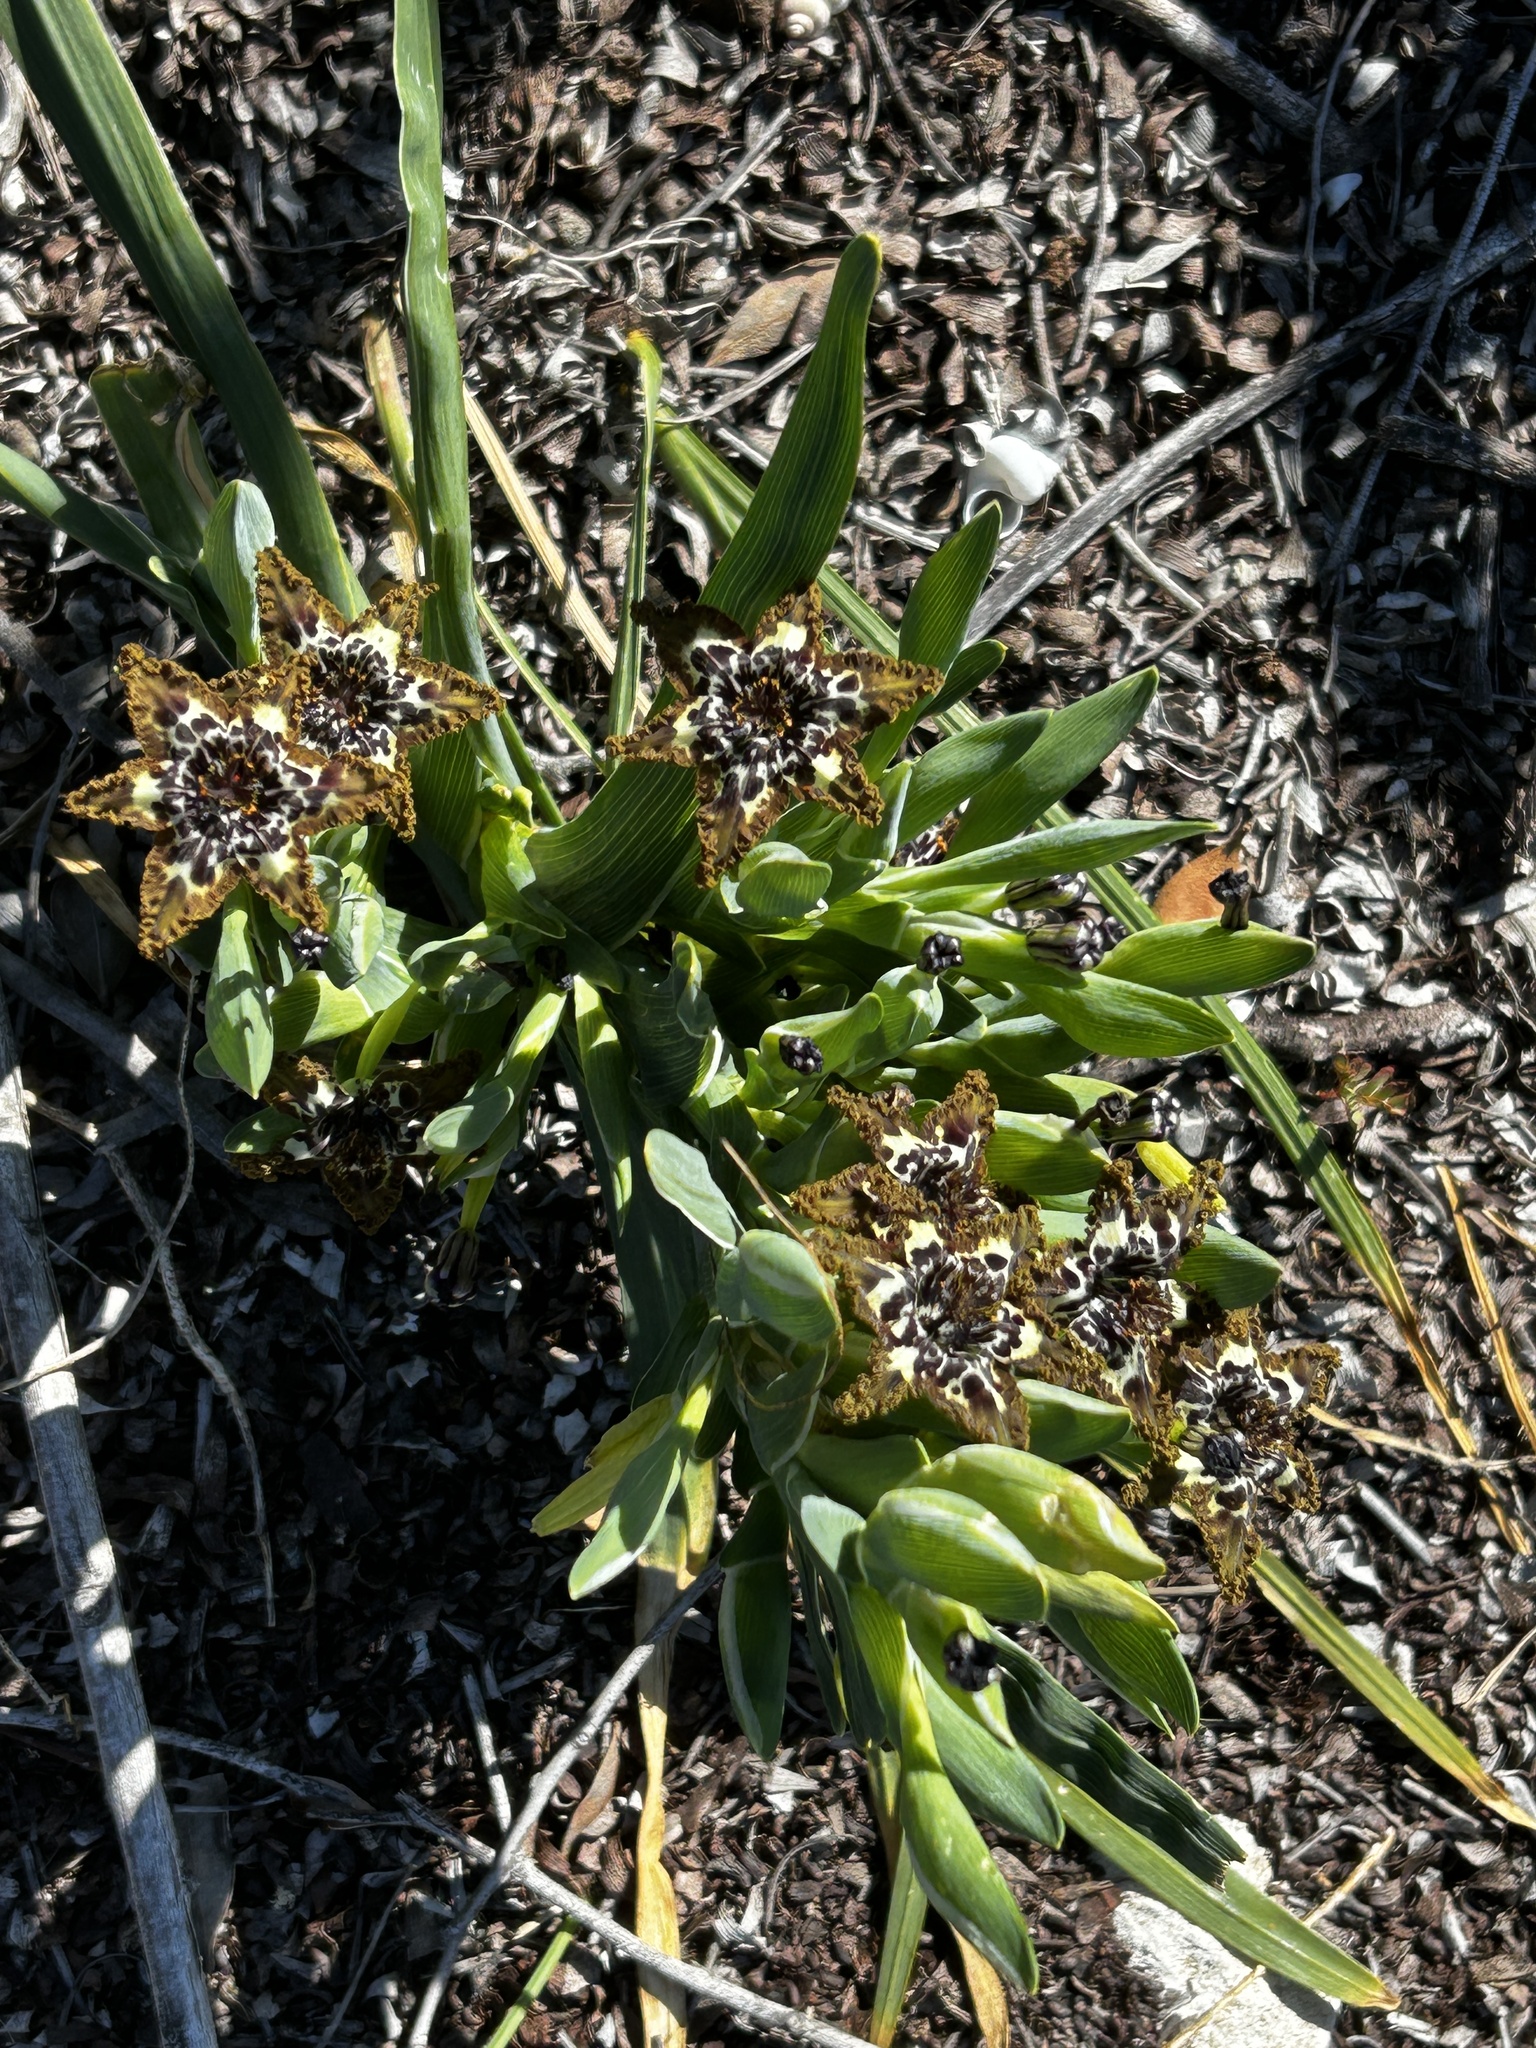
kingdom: Plantae
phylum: Tracheophyta
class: Liliopsida
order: Asparagales
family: Iridaceae
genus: Ferraria
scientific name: Ferraria crispa
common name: Black-flag
